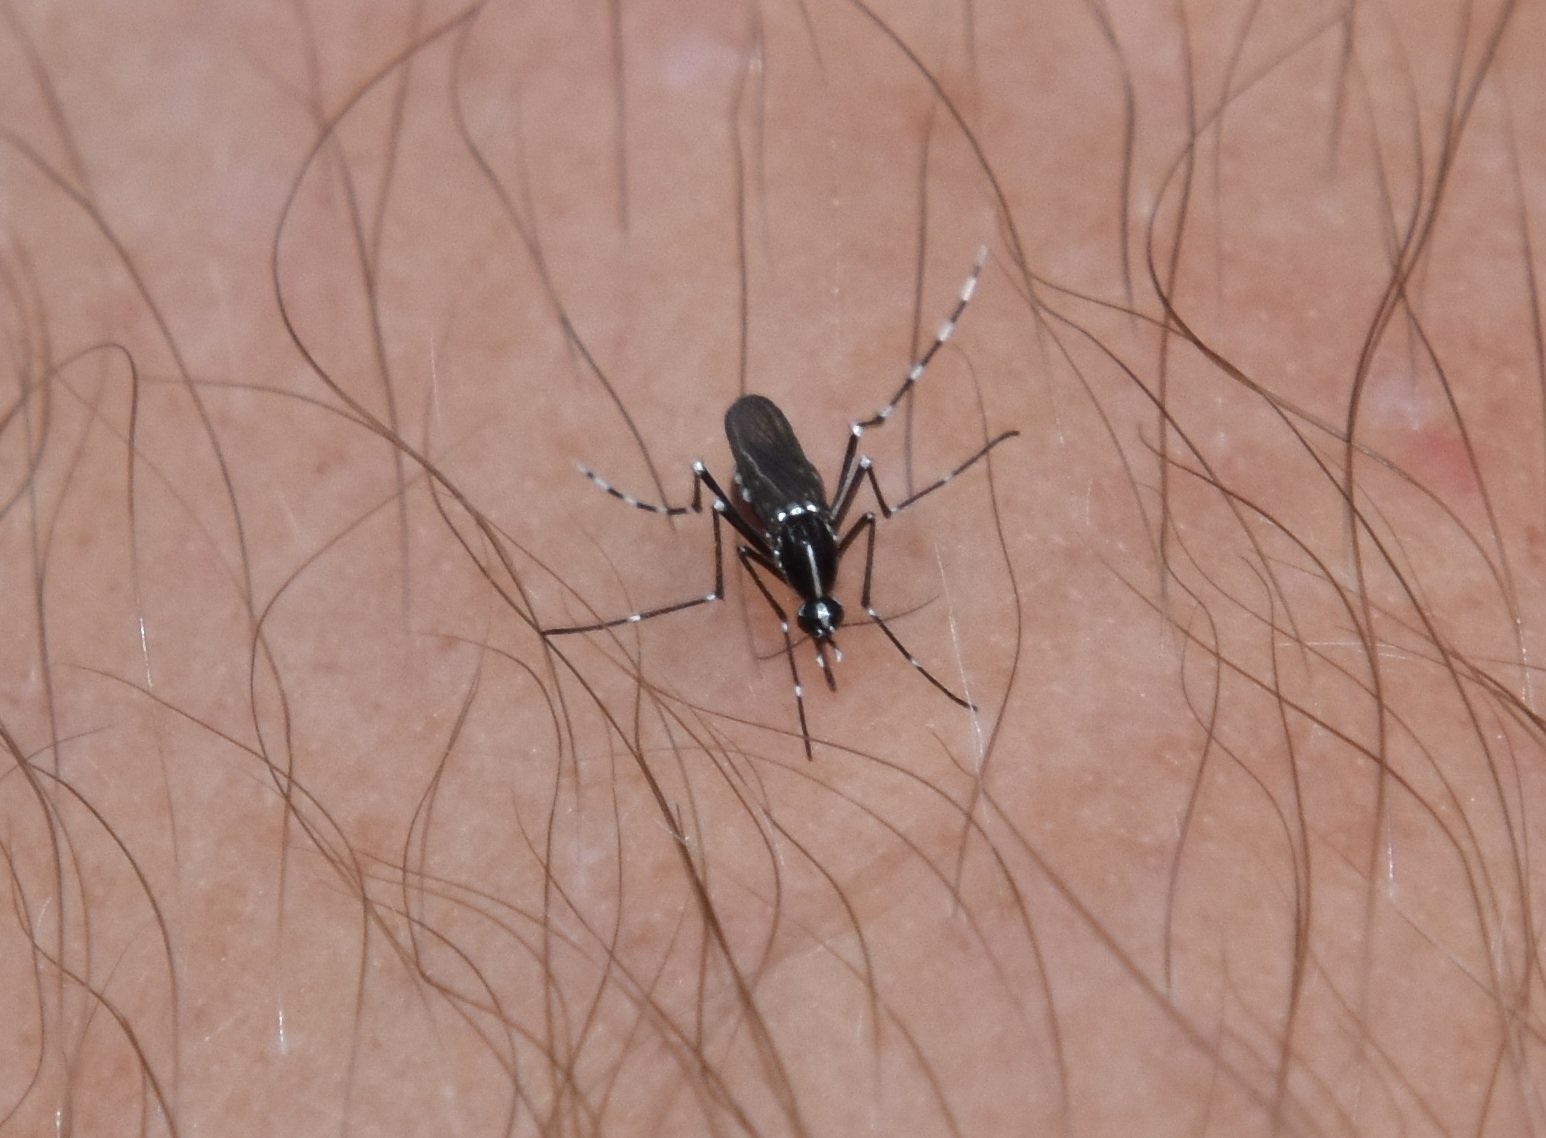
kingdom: Animalia
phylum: Arthropoda
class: Insecta
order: Diptera
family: Culicidae
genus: Aedes
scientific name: Aedes albopictus
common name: Tiger mosquito
